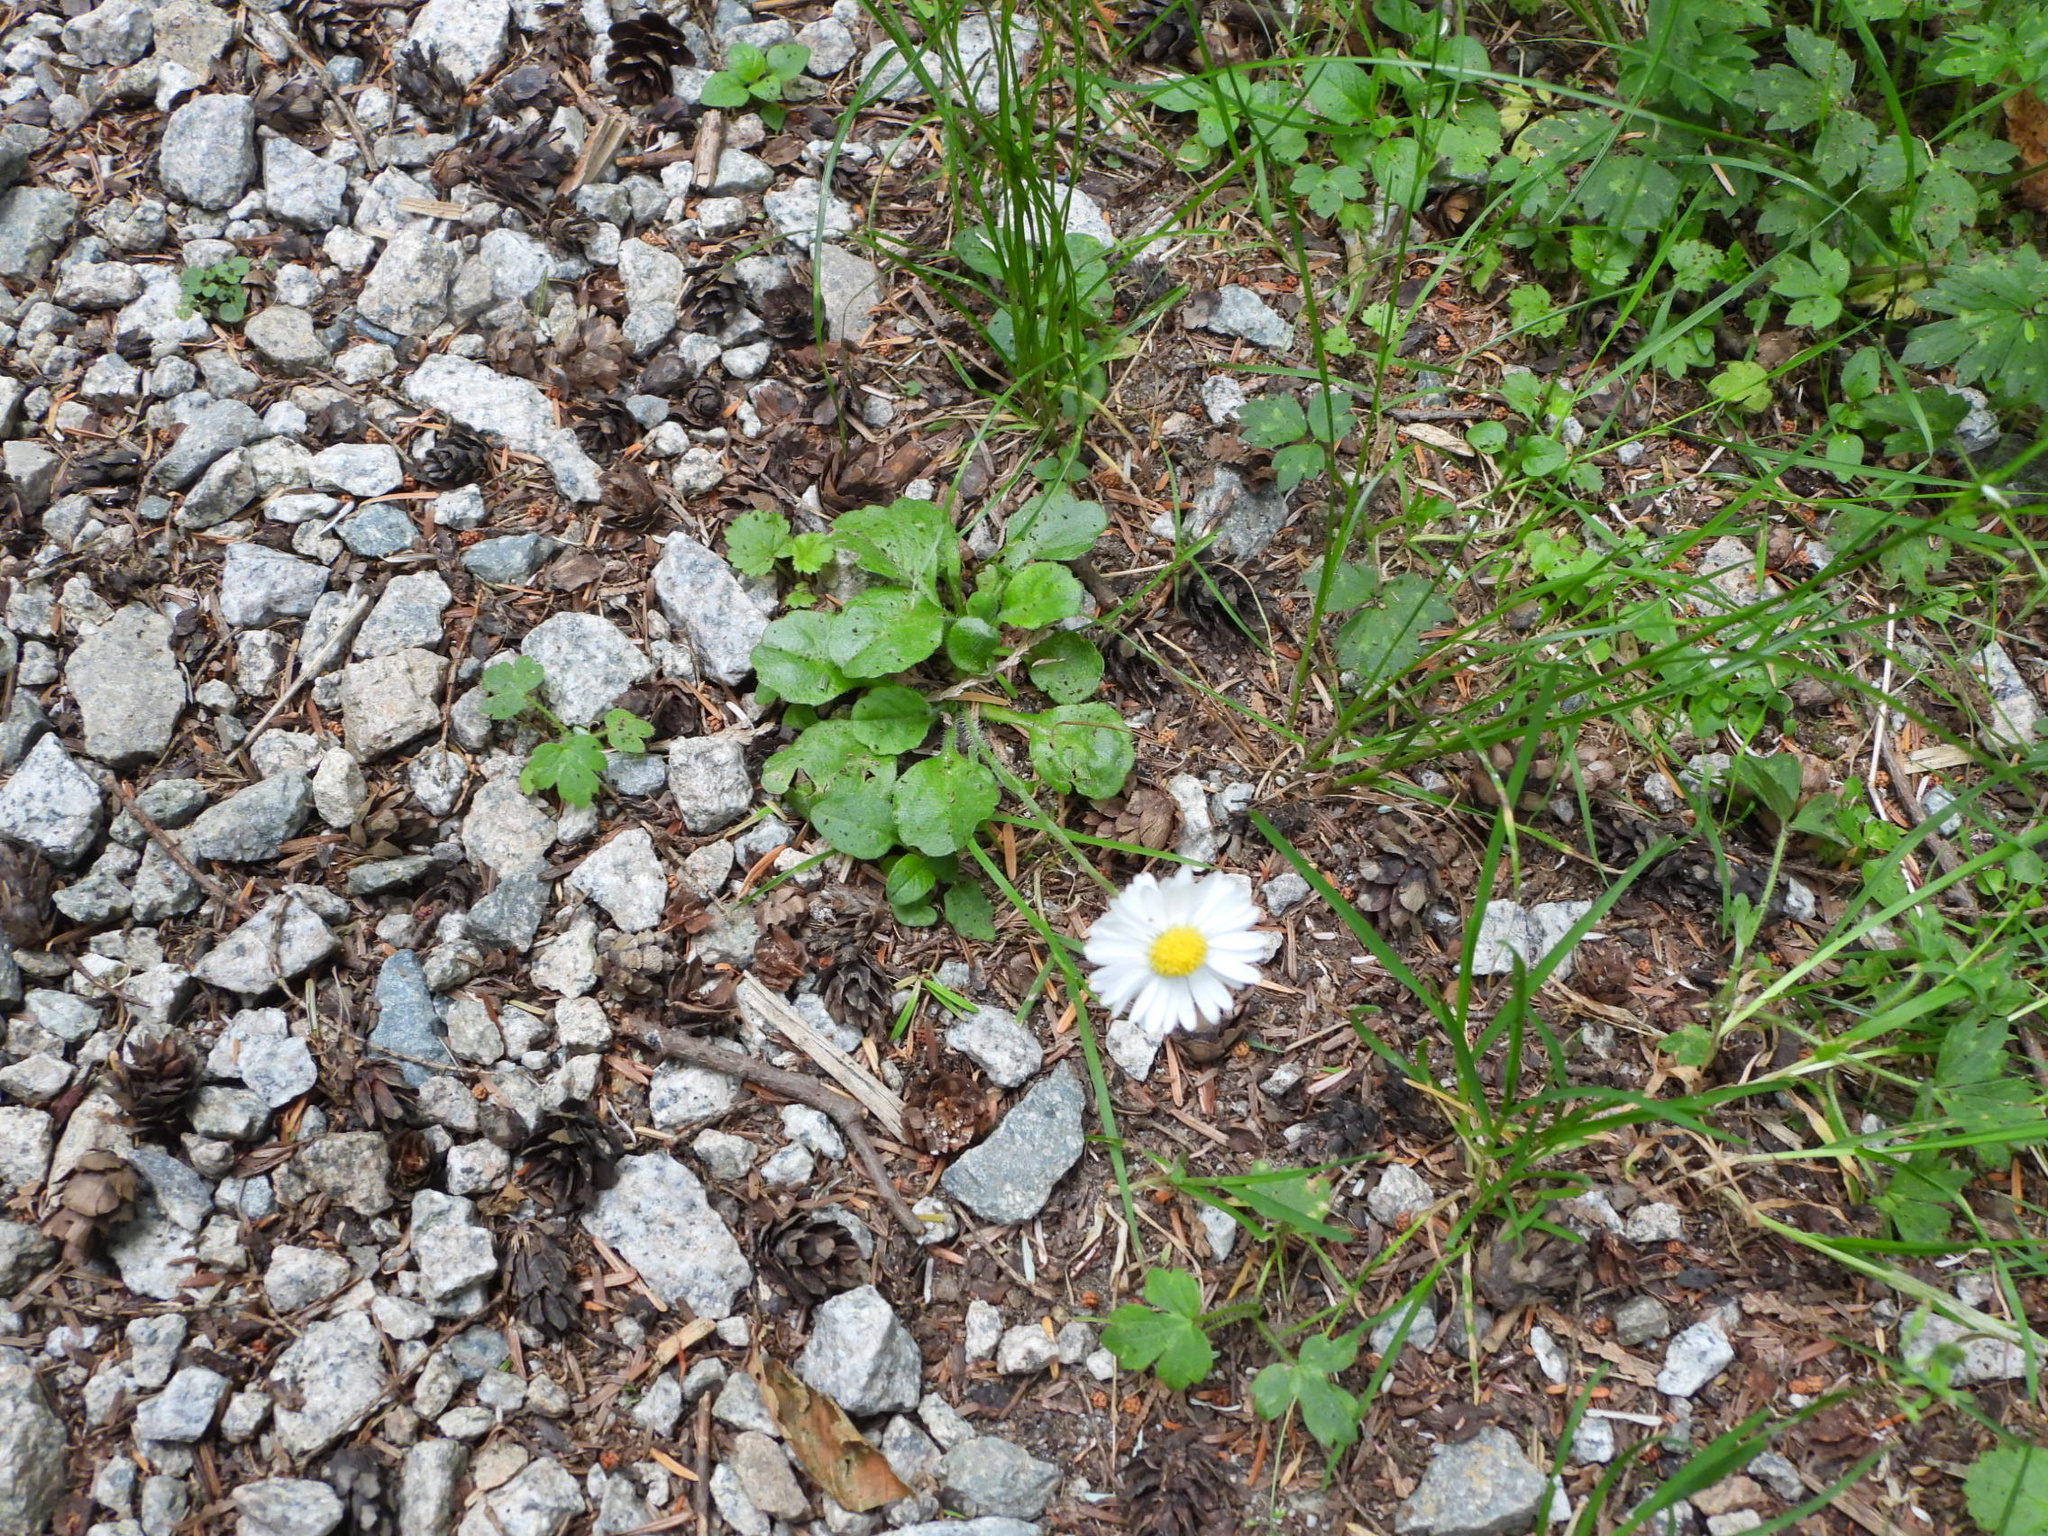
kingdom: Plantae
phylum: Tracheophyta
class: Magnoliopsida
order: Asterales
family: Asteraceae
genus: Bellis
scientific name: Bellis perennis
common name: Lawndaisy
